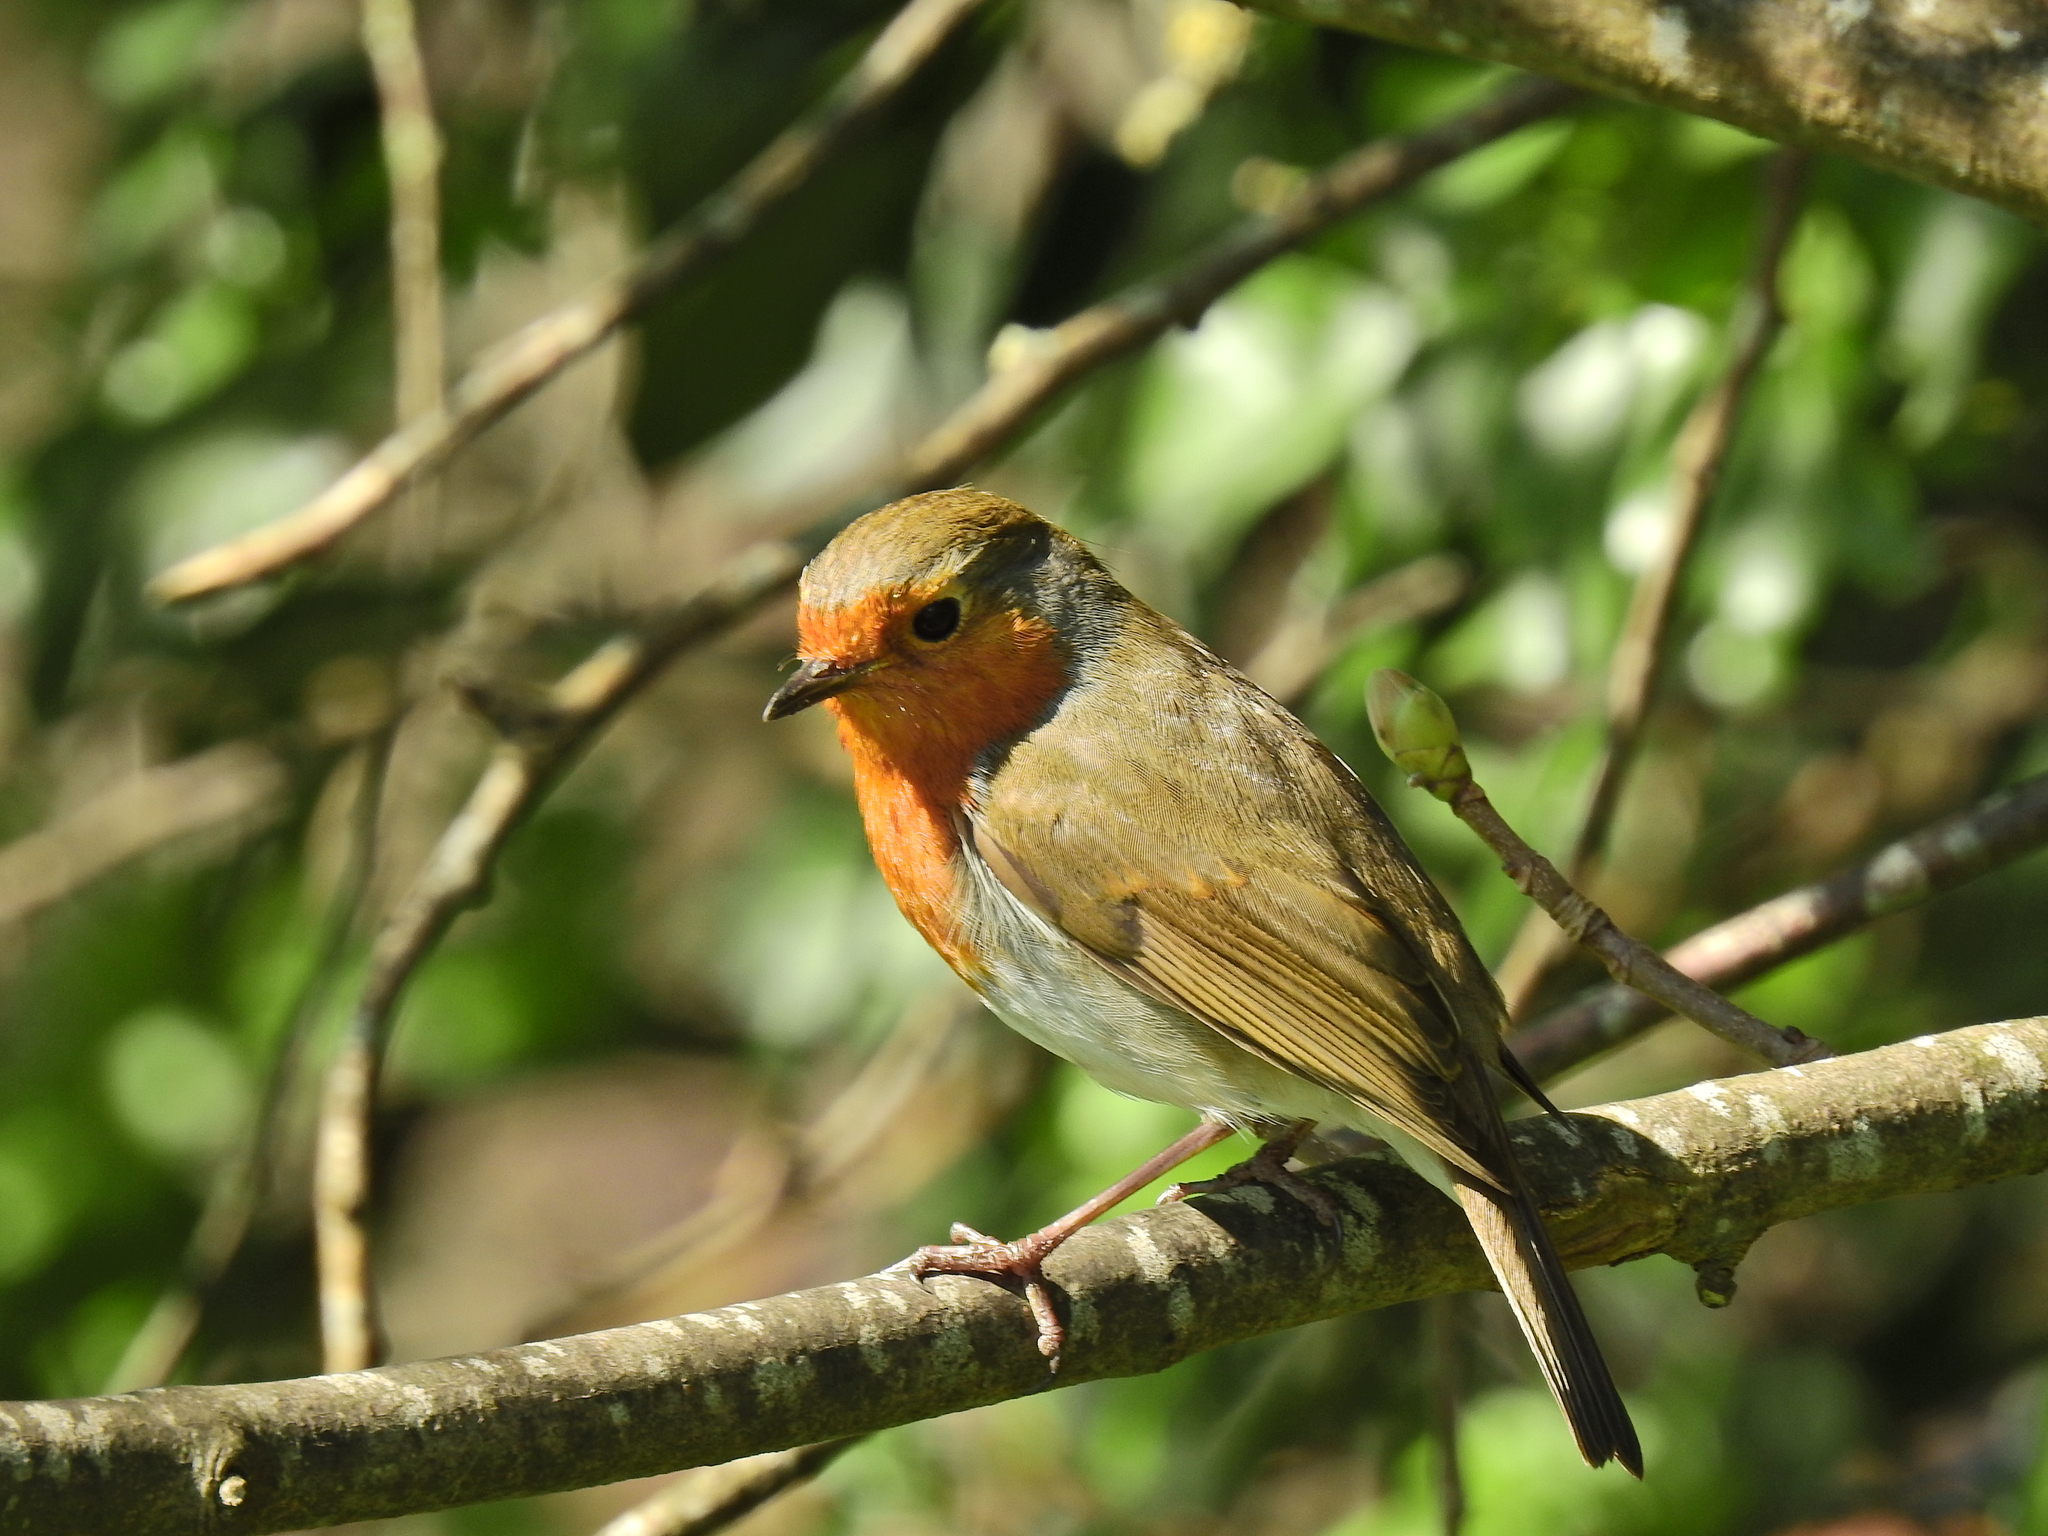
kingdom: Animalia
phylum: Chordata
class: Aves
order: Passeriformes
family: Muscicapidae
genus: Erithacus
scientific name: Erithacus rubecula
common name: European robin
